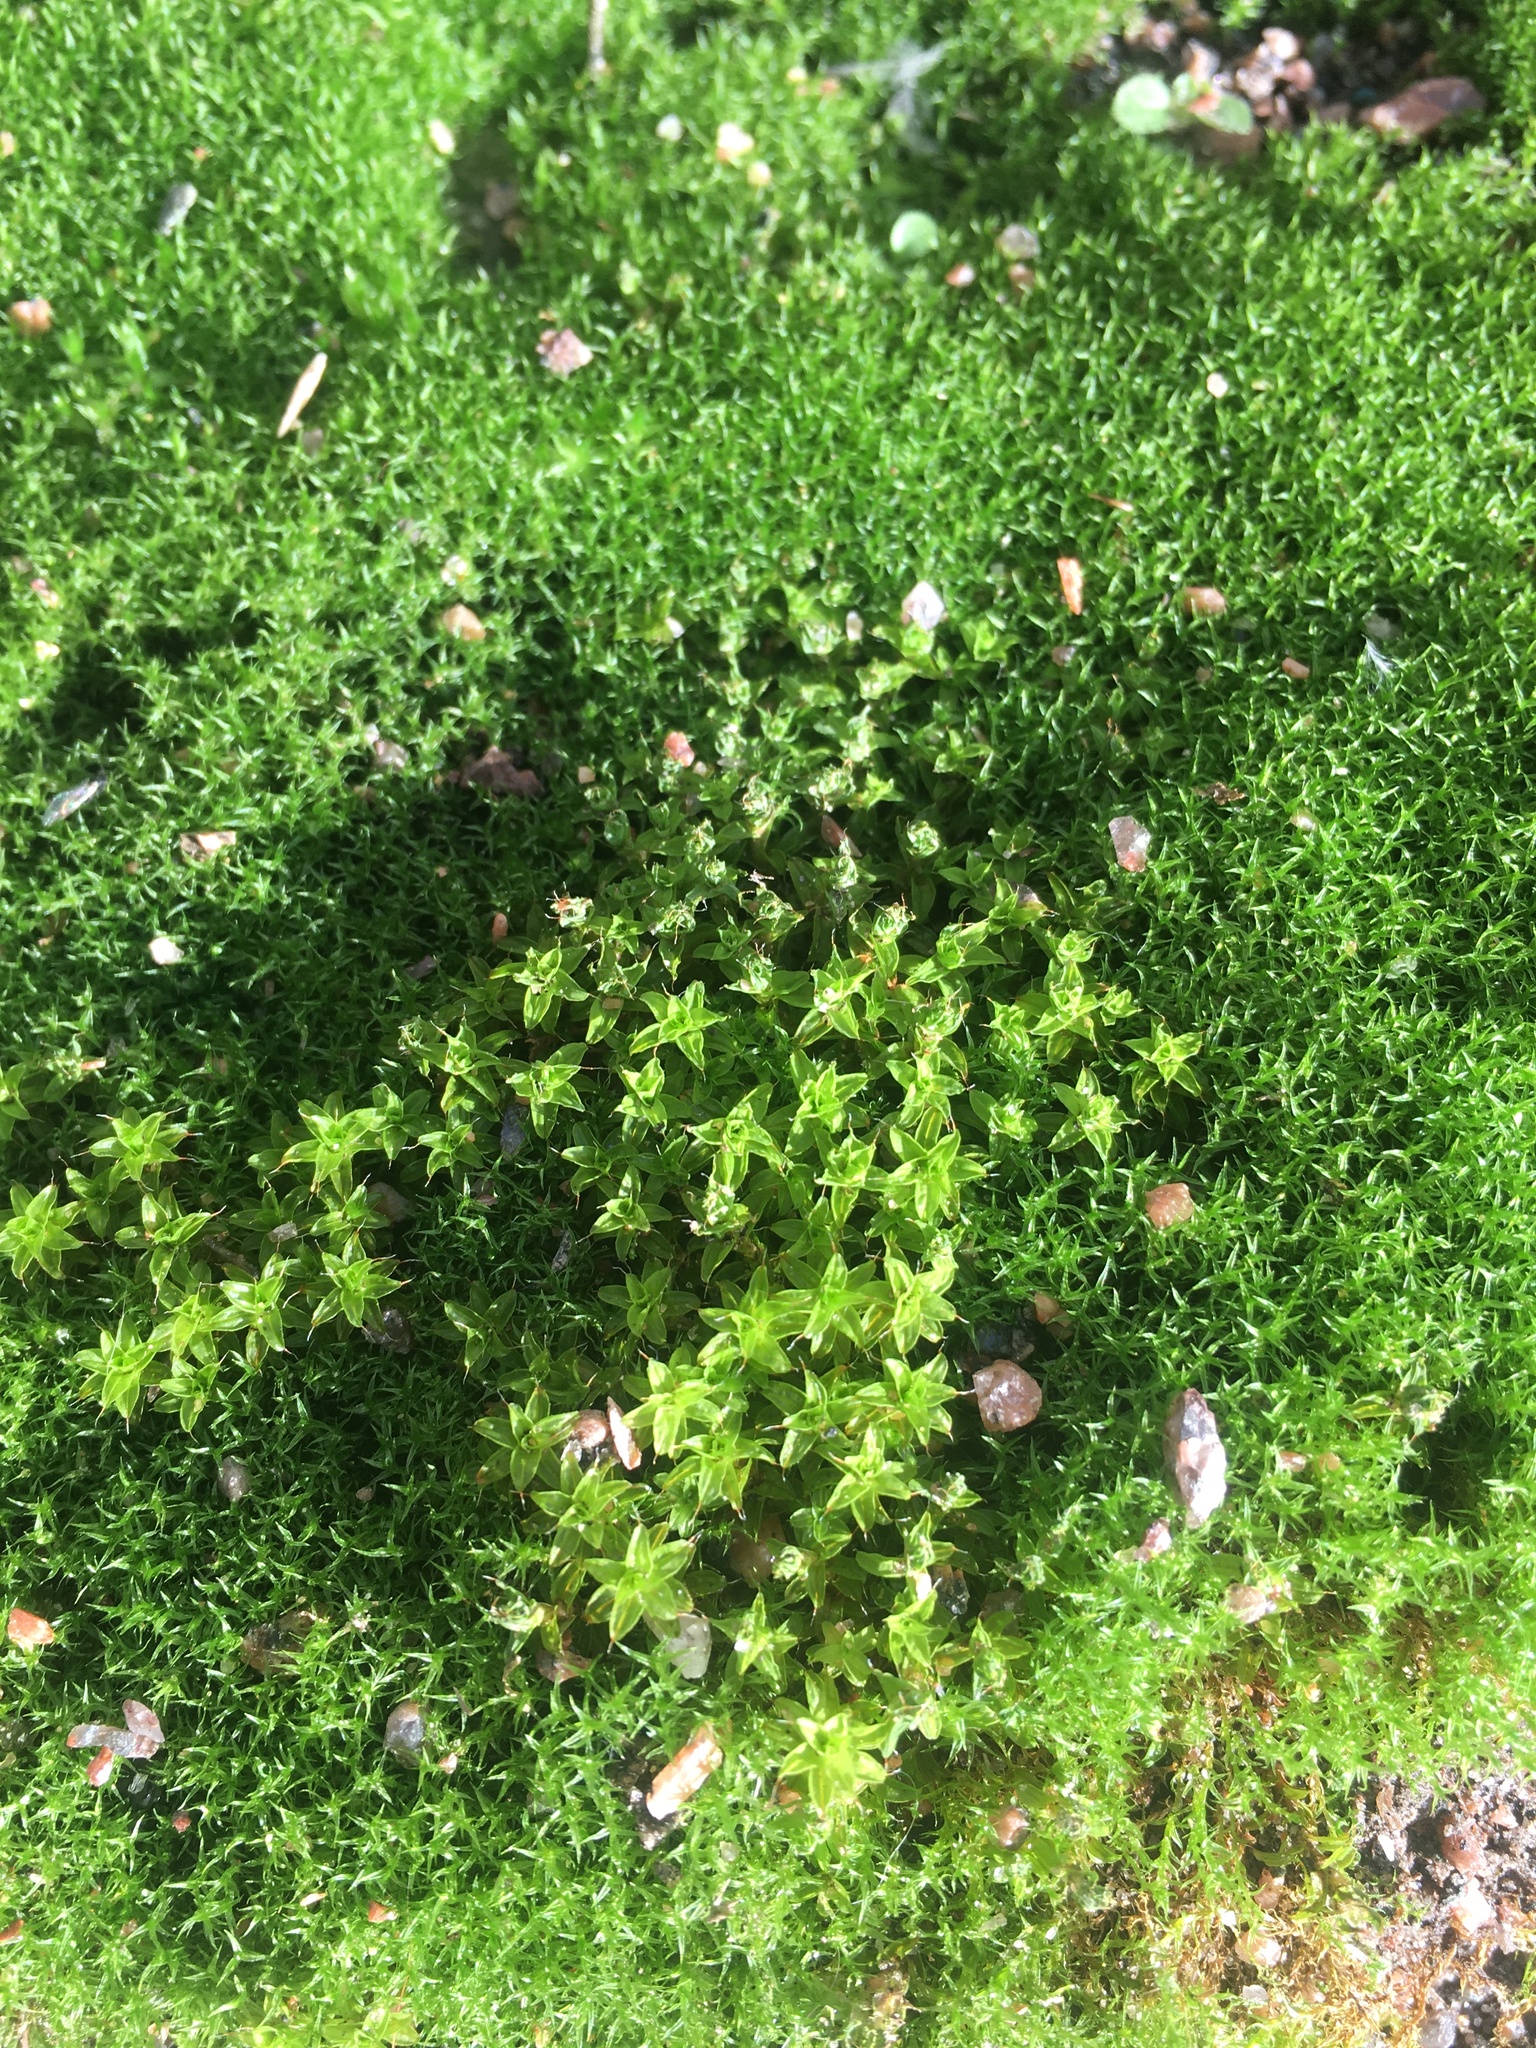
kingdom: Plantae
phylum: Bryophyta
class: Bryopsida
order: Pottiales
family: Pottiaceae
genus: Syntrichia
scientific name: Syntrichia ruralis
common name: Sidewalk screw moss
